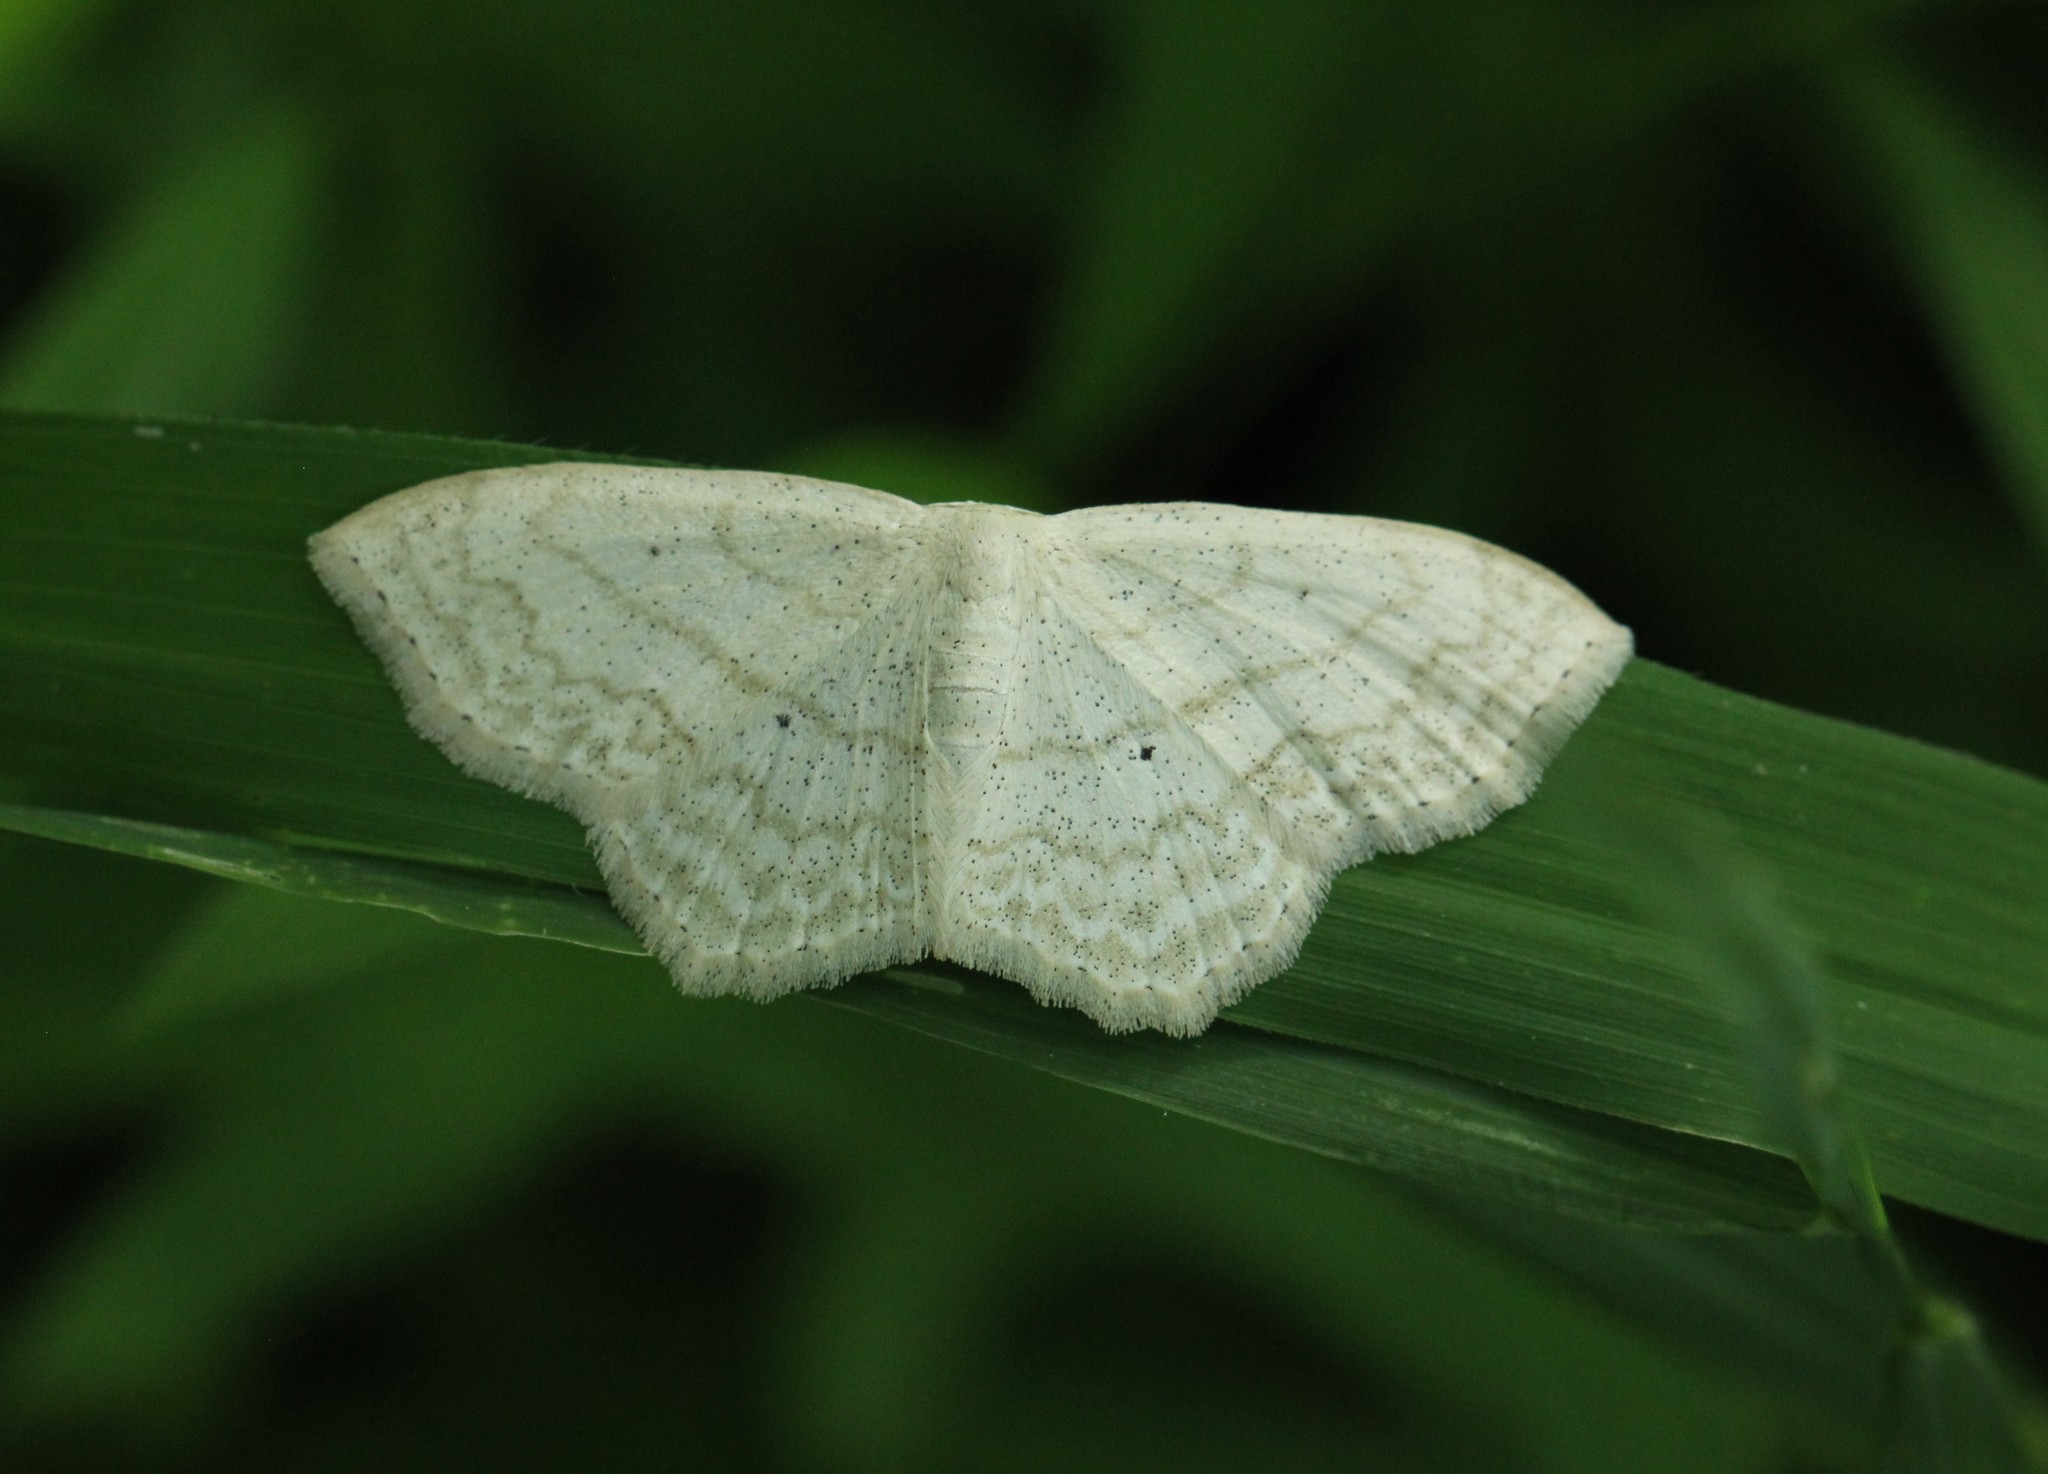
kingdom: Animalia
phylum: Arthropoda
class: Insecta
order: Lepidoptera
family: Geometridae
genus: Scopula
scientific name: Scopula limboundata
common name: Large lace border
